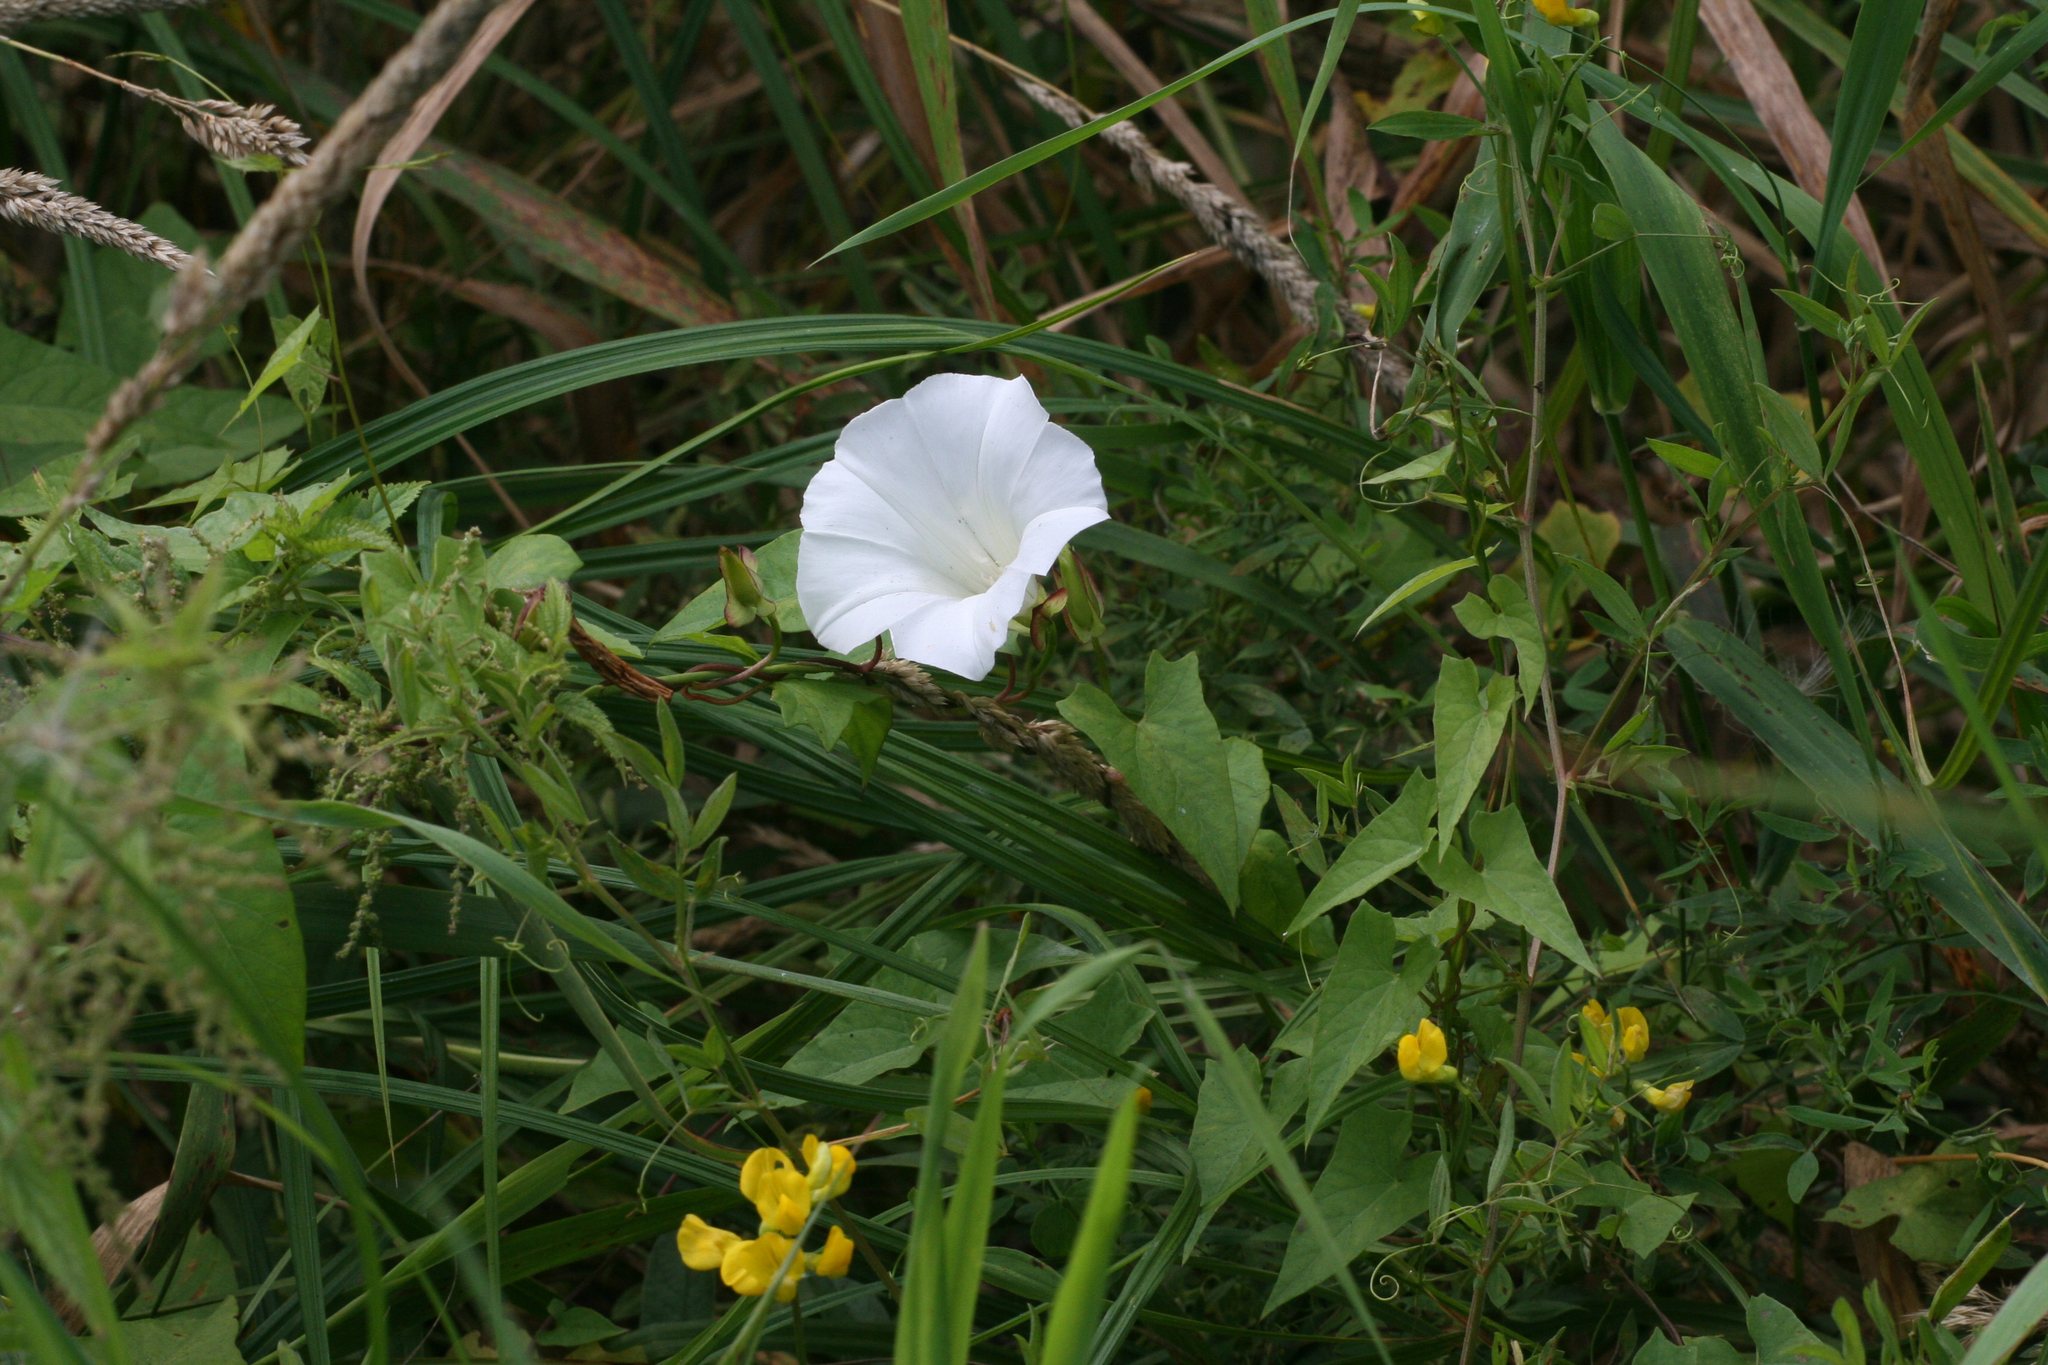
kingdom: Plantae
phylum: Tracheophyta
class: Magnoliopsida
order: Solanales
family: Convolvulaceae
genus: Calystegia
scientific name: Calystegia sepium
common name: Hedge bindweed
